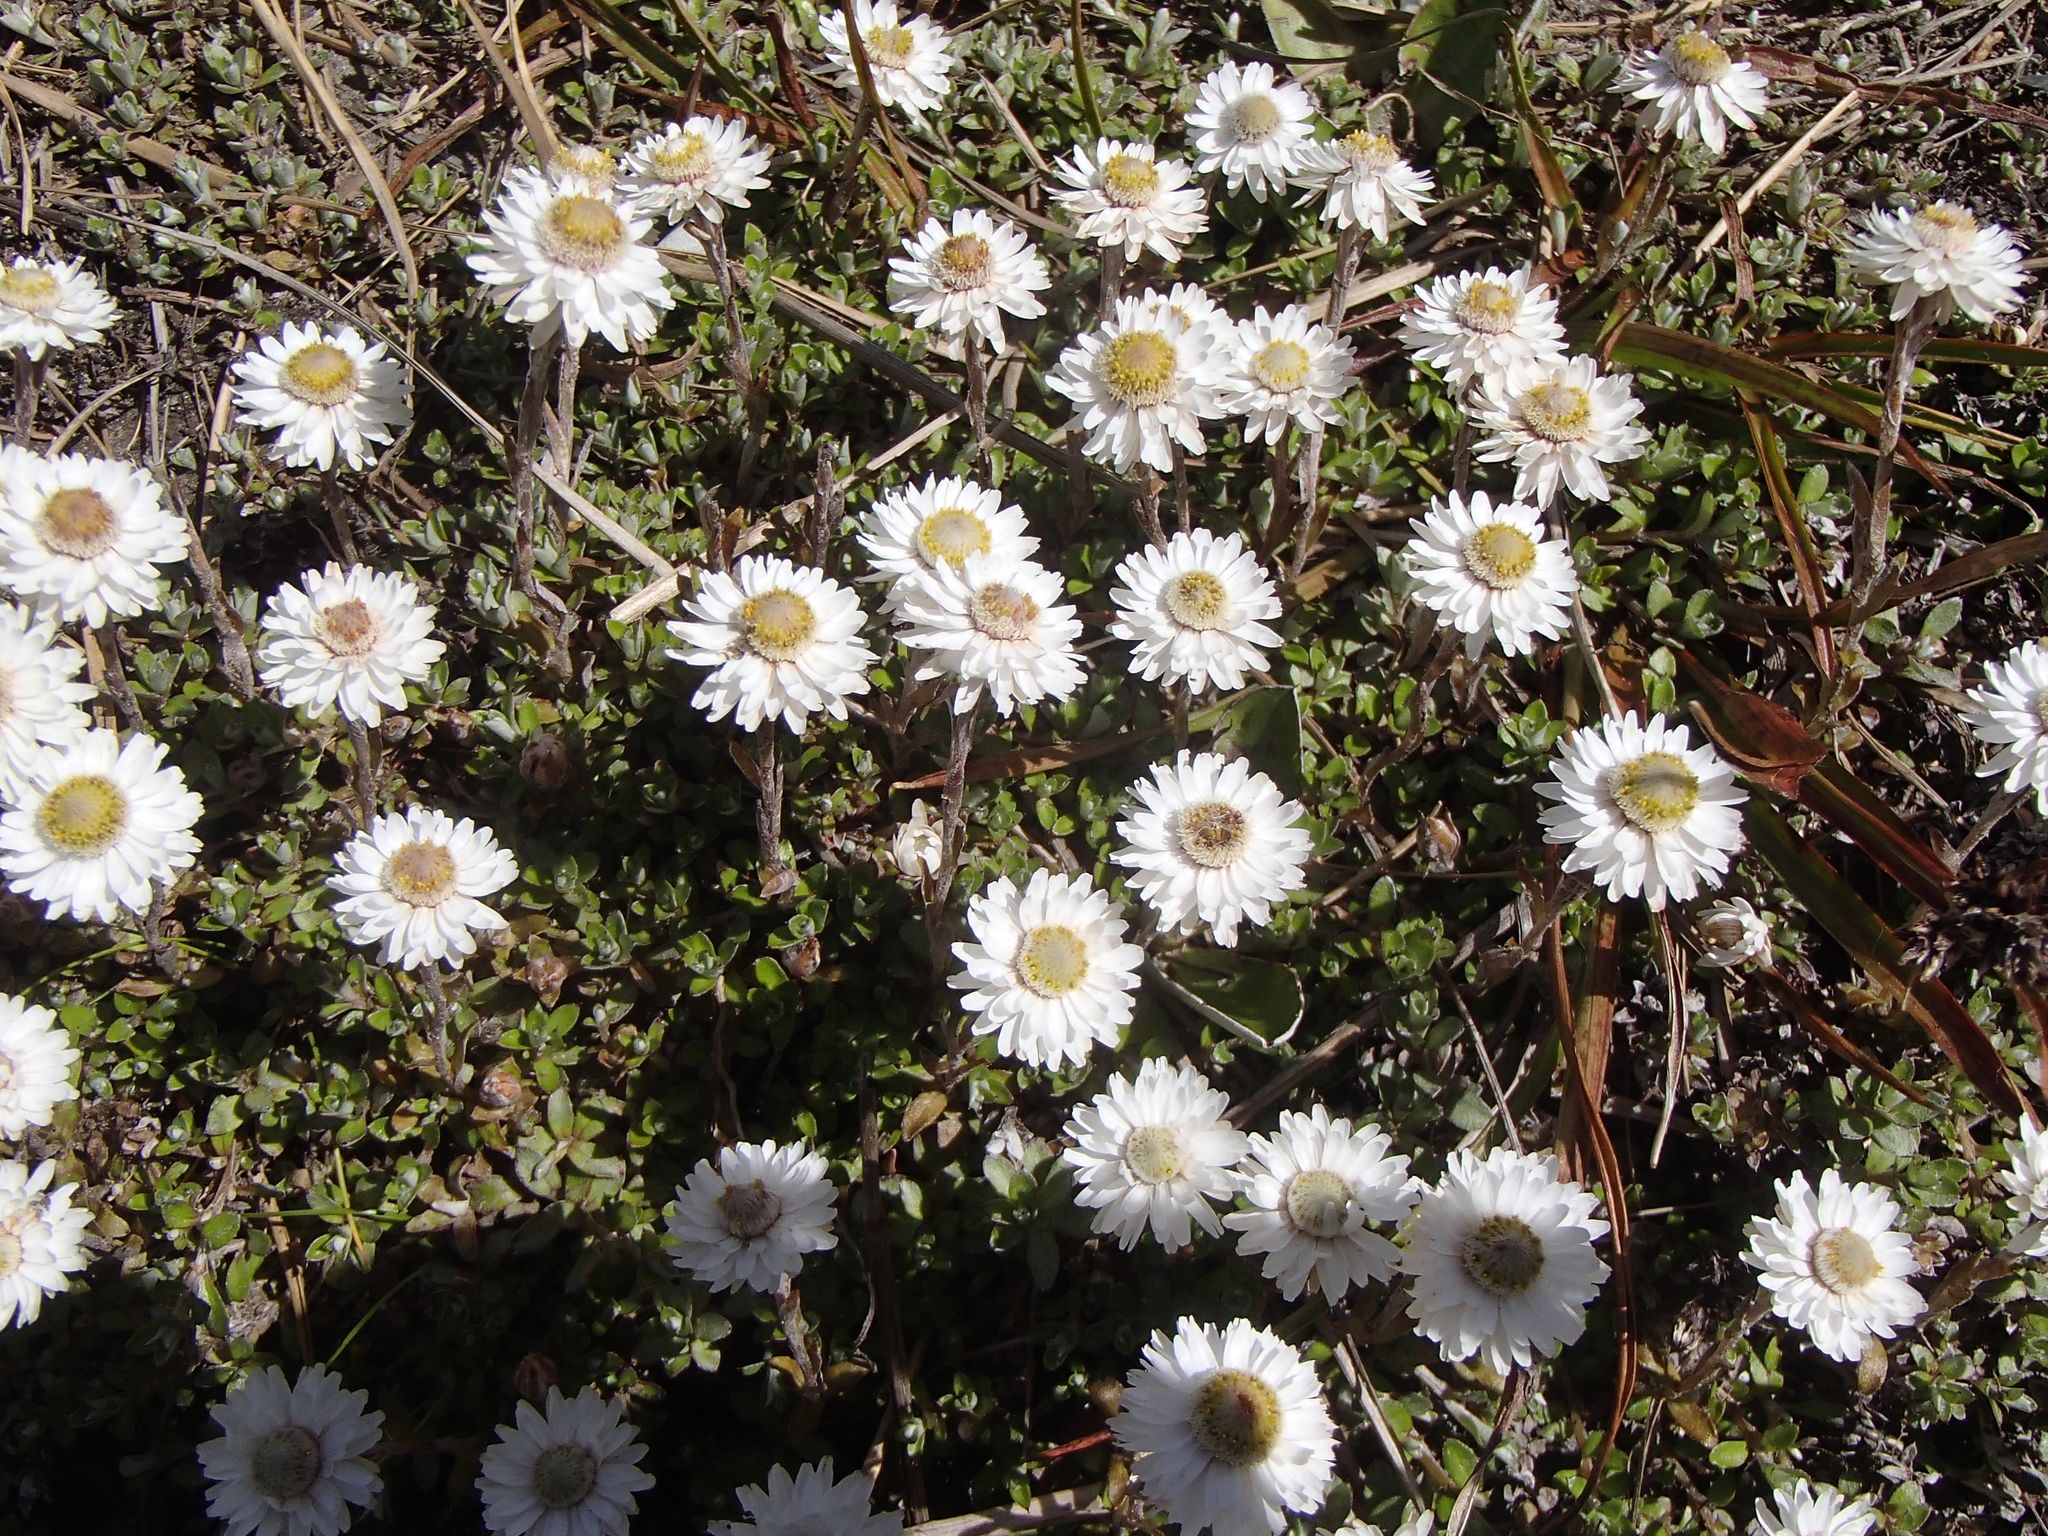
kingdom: Plantae
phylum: Tracheophyta
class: Magnoliopsida
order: Asterales
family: Asteraceae
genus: Anaphalioides
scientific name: Anaphalioides bellidioides
